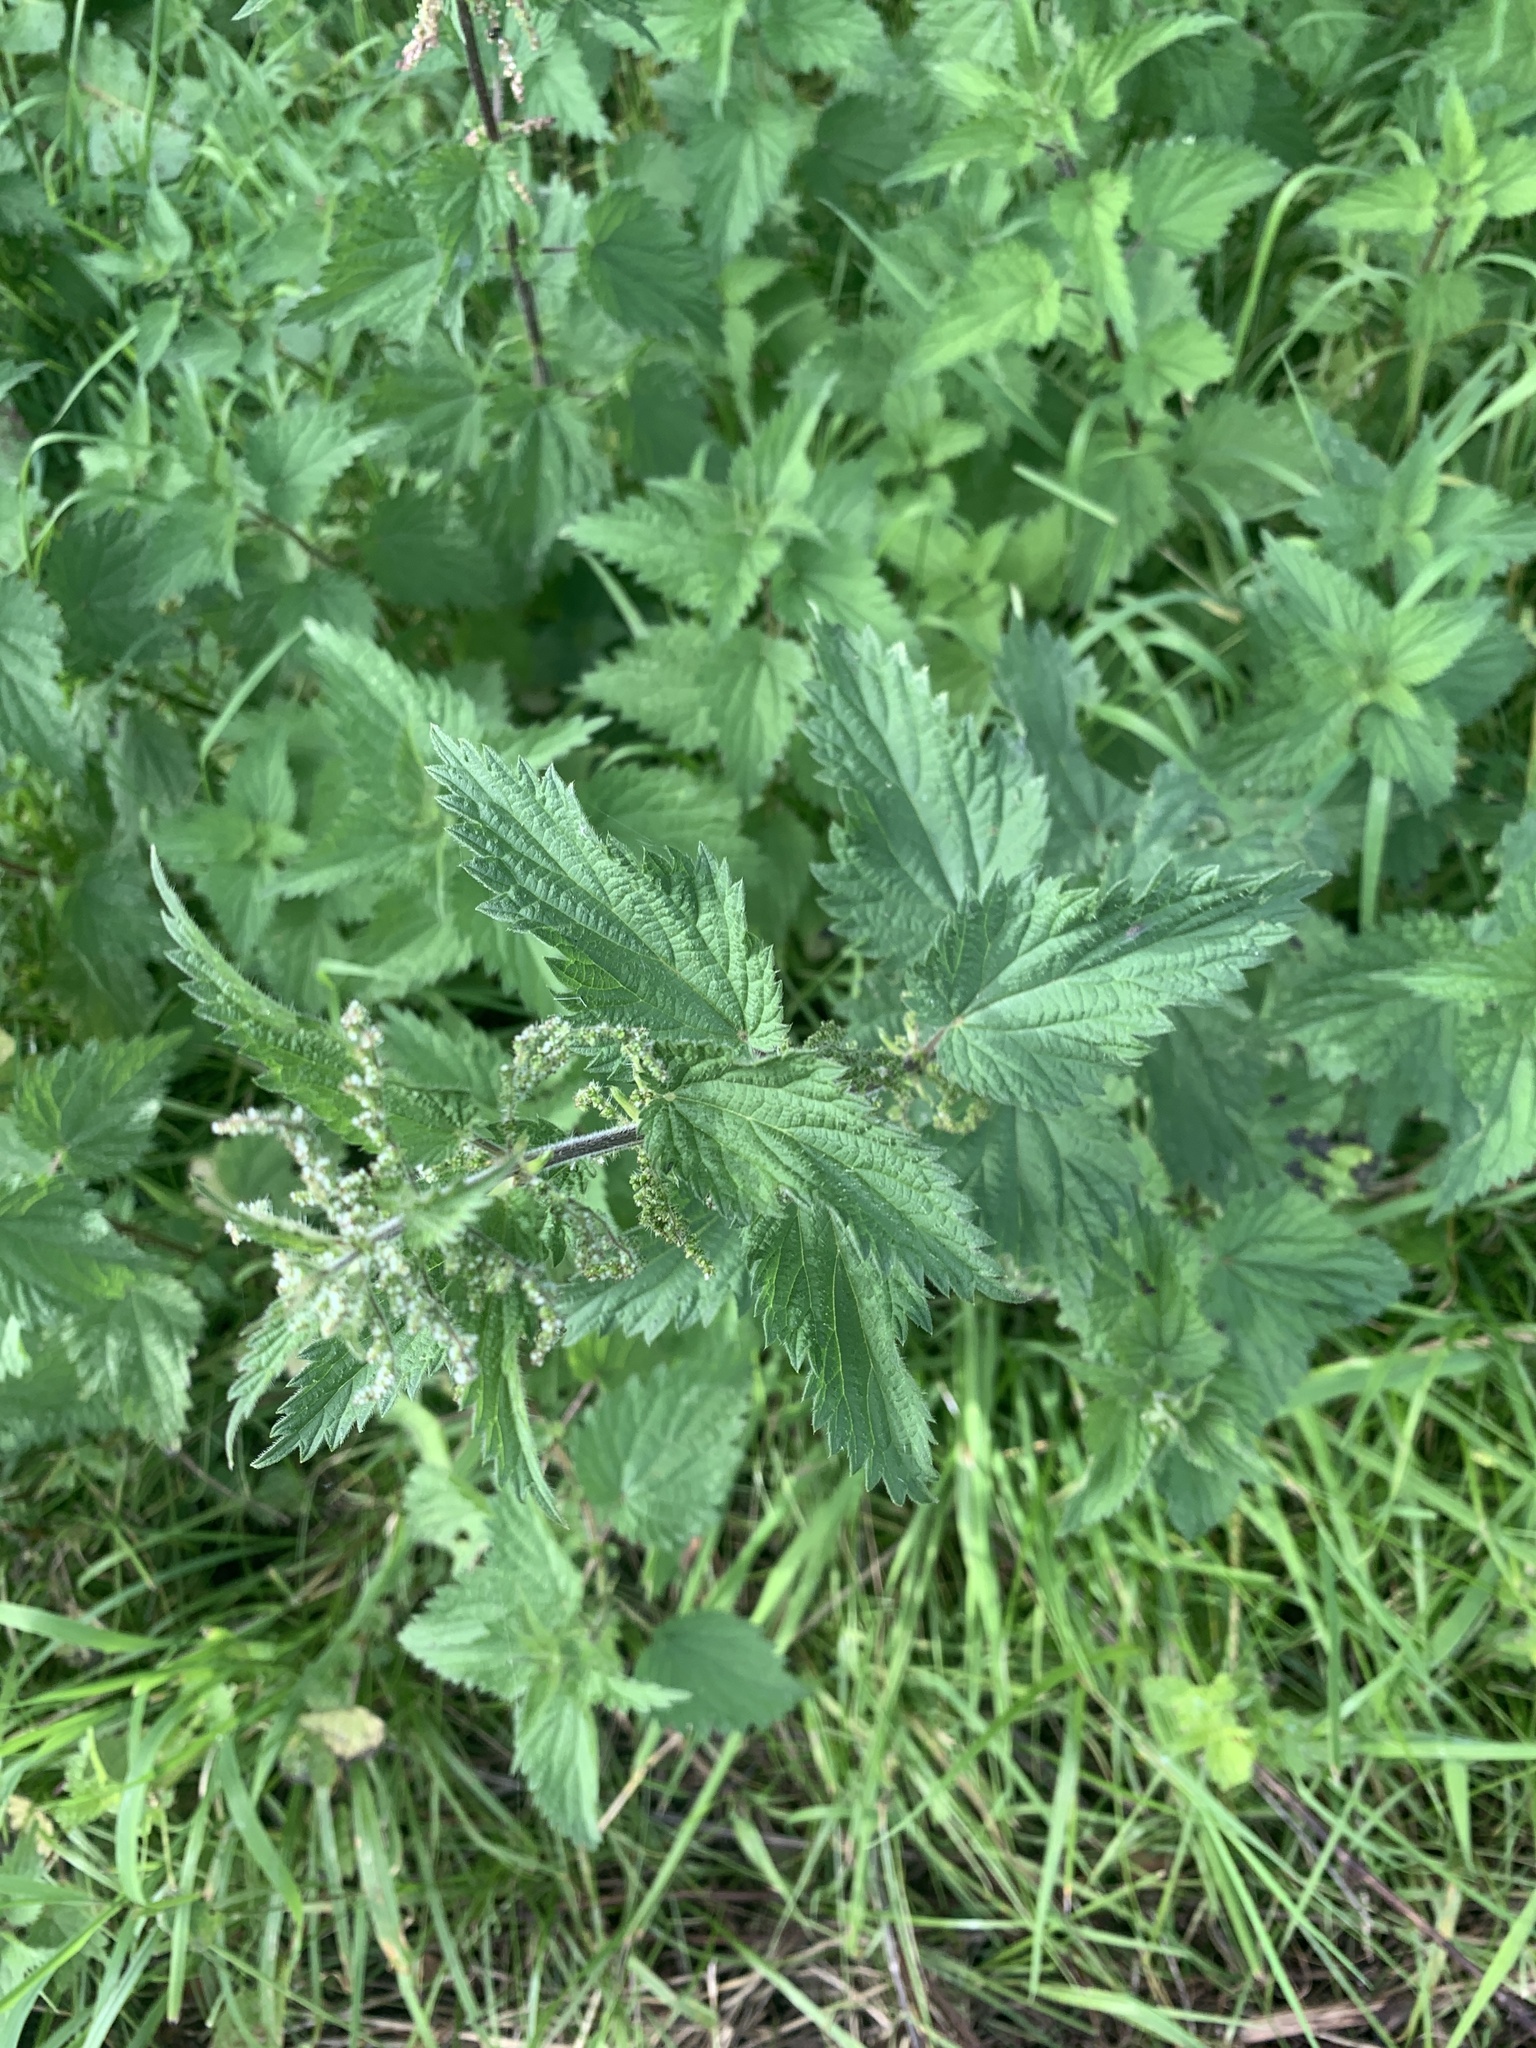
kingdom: Plantae
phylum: Tracheophyta
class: Magnoliopsida
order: Rosales
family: Urticaceae
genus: Urtica
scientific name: Urtica dioica
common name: Common nettle
